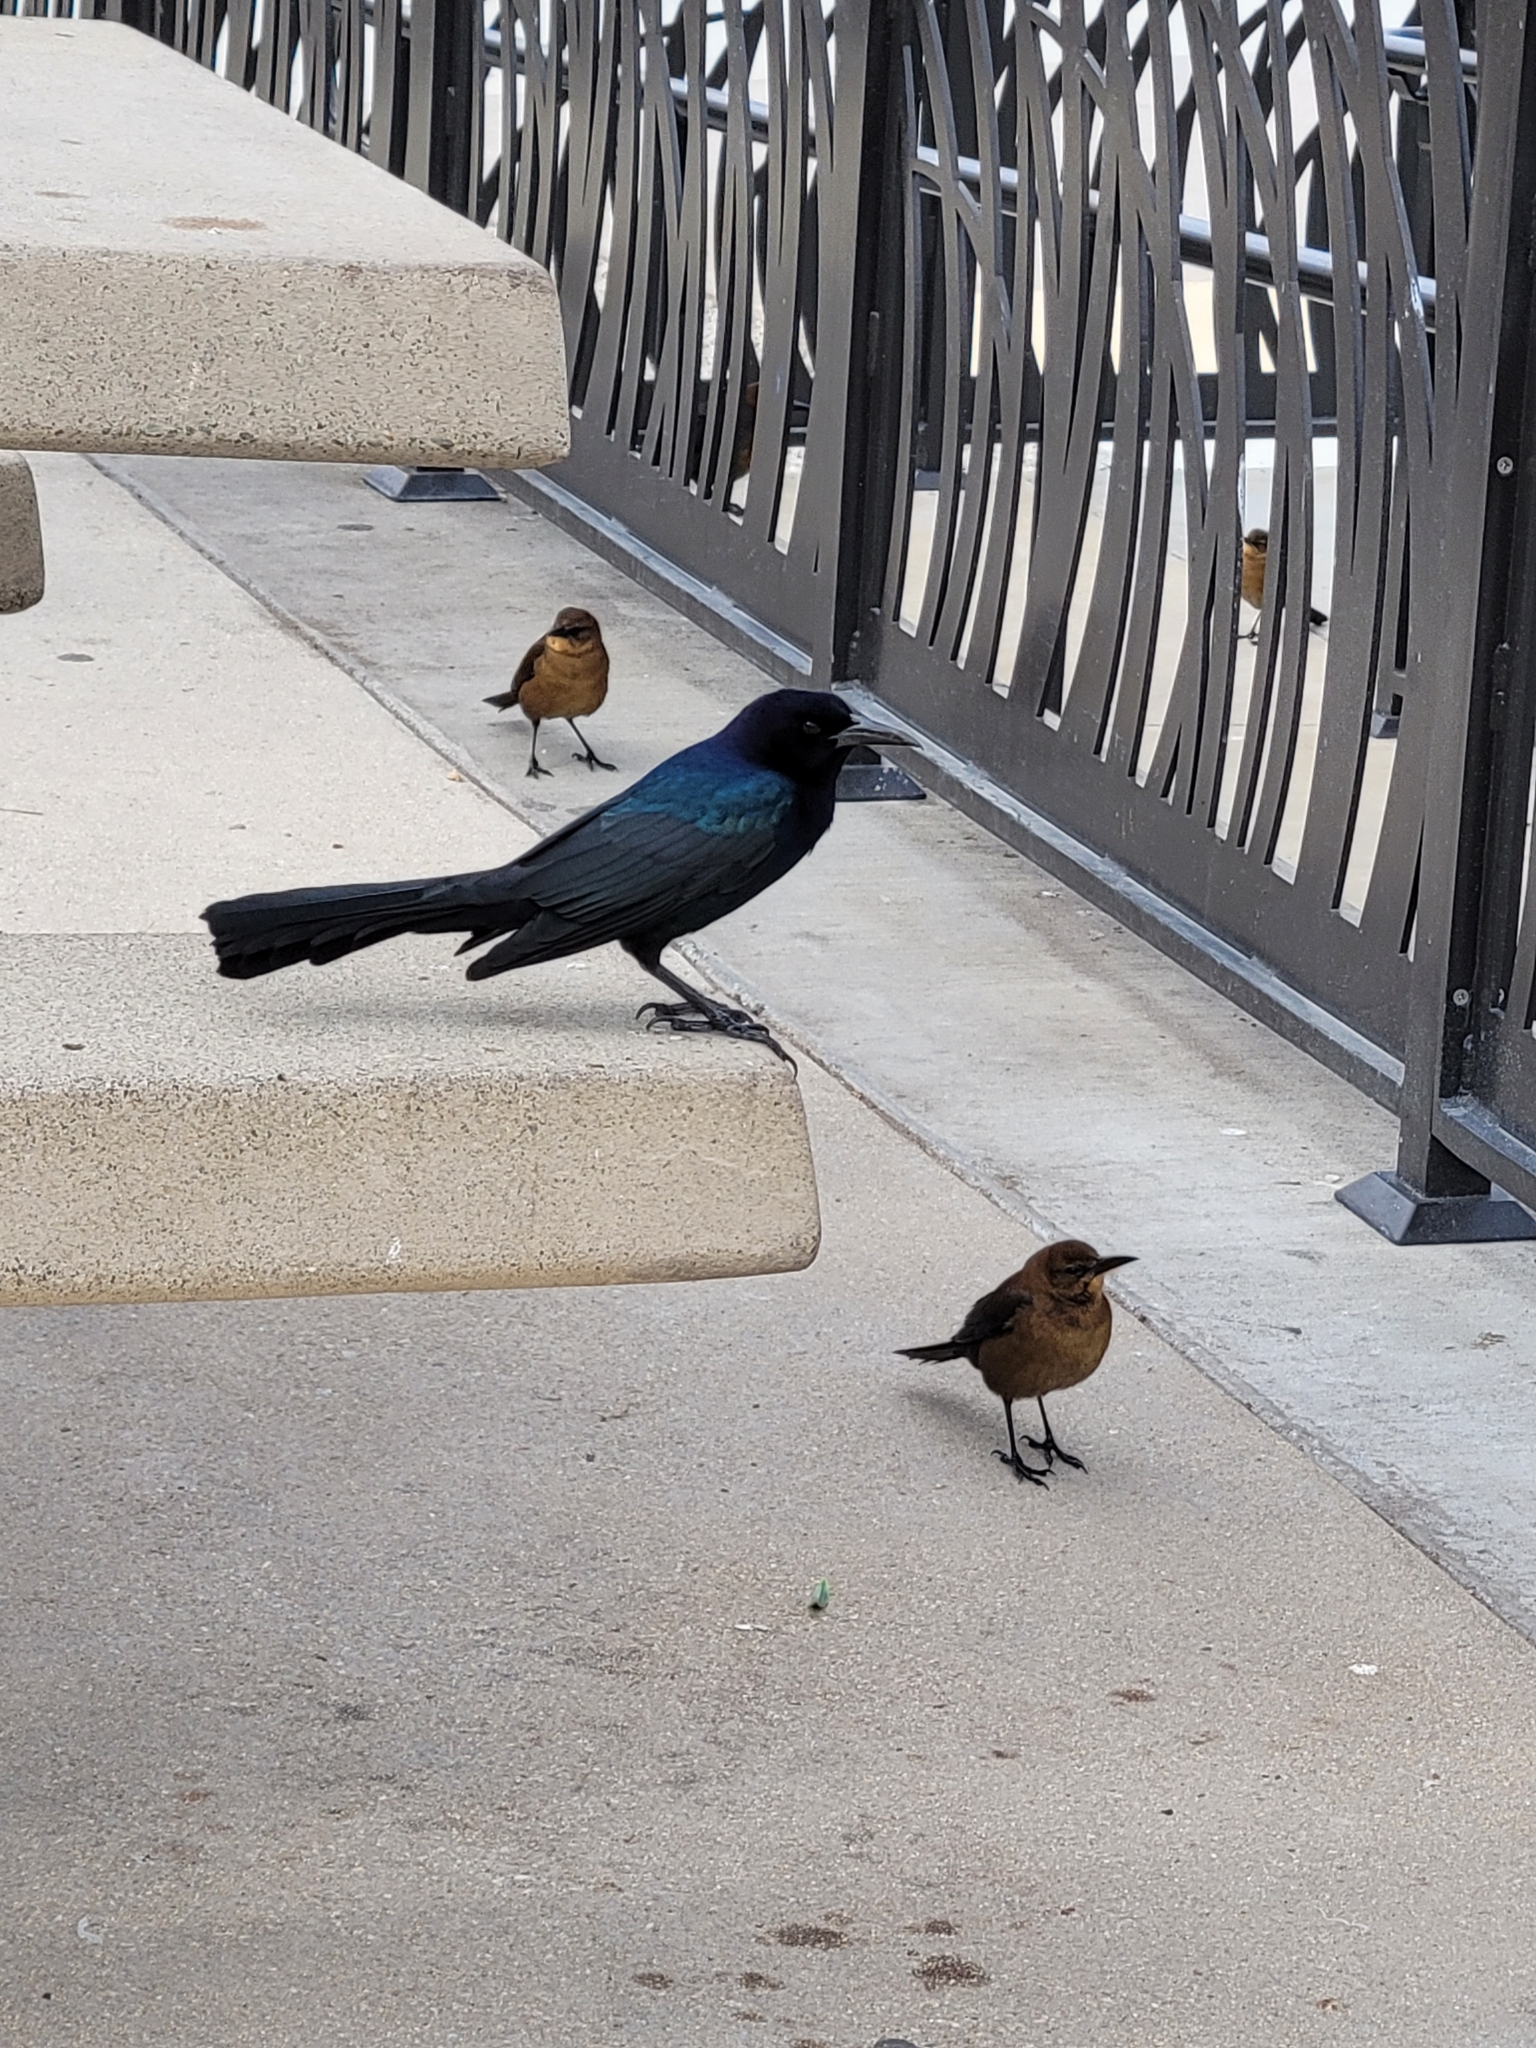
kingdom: Animalia
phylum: Chordata
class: Aves
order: Passeriformes
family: Icteridae
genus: Quiscalus
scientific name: Quiscalus major
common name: Boat-tailed grackle
